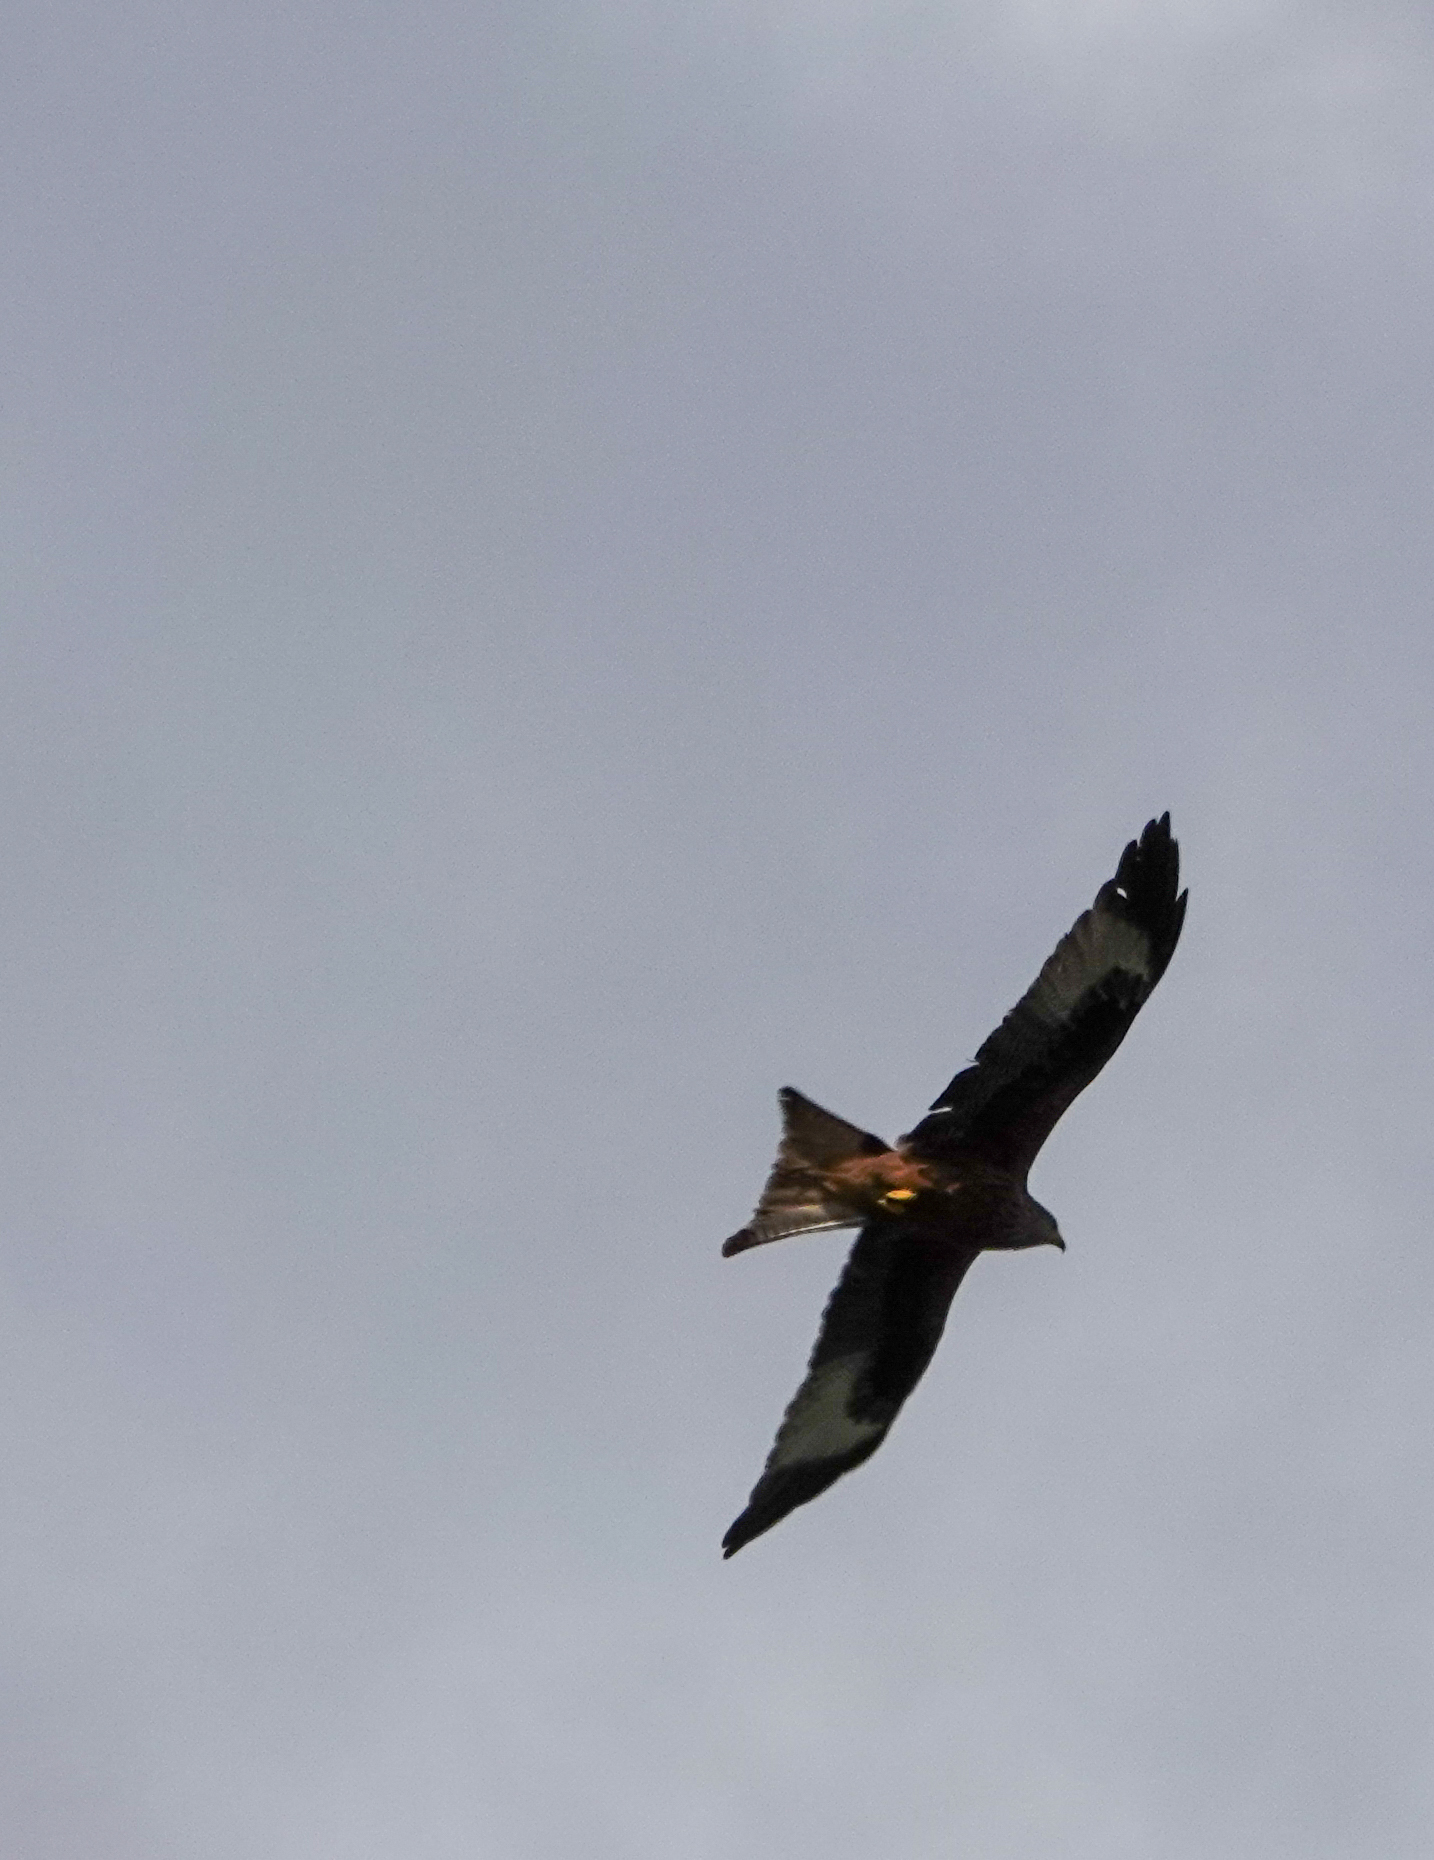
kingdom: Animalia
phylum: Chordata
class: Aves
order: Accipitriformes
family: Accipitridae
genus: Milvus
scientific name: Milvus milvus
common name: Red kite
